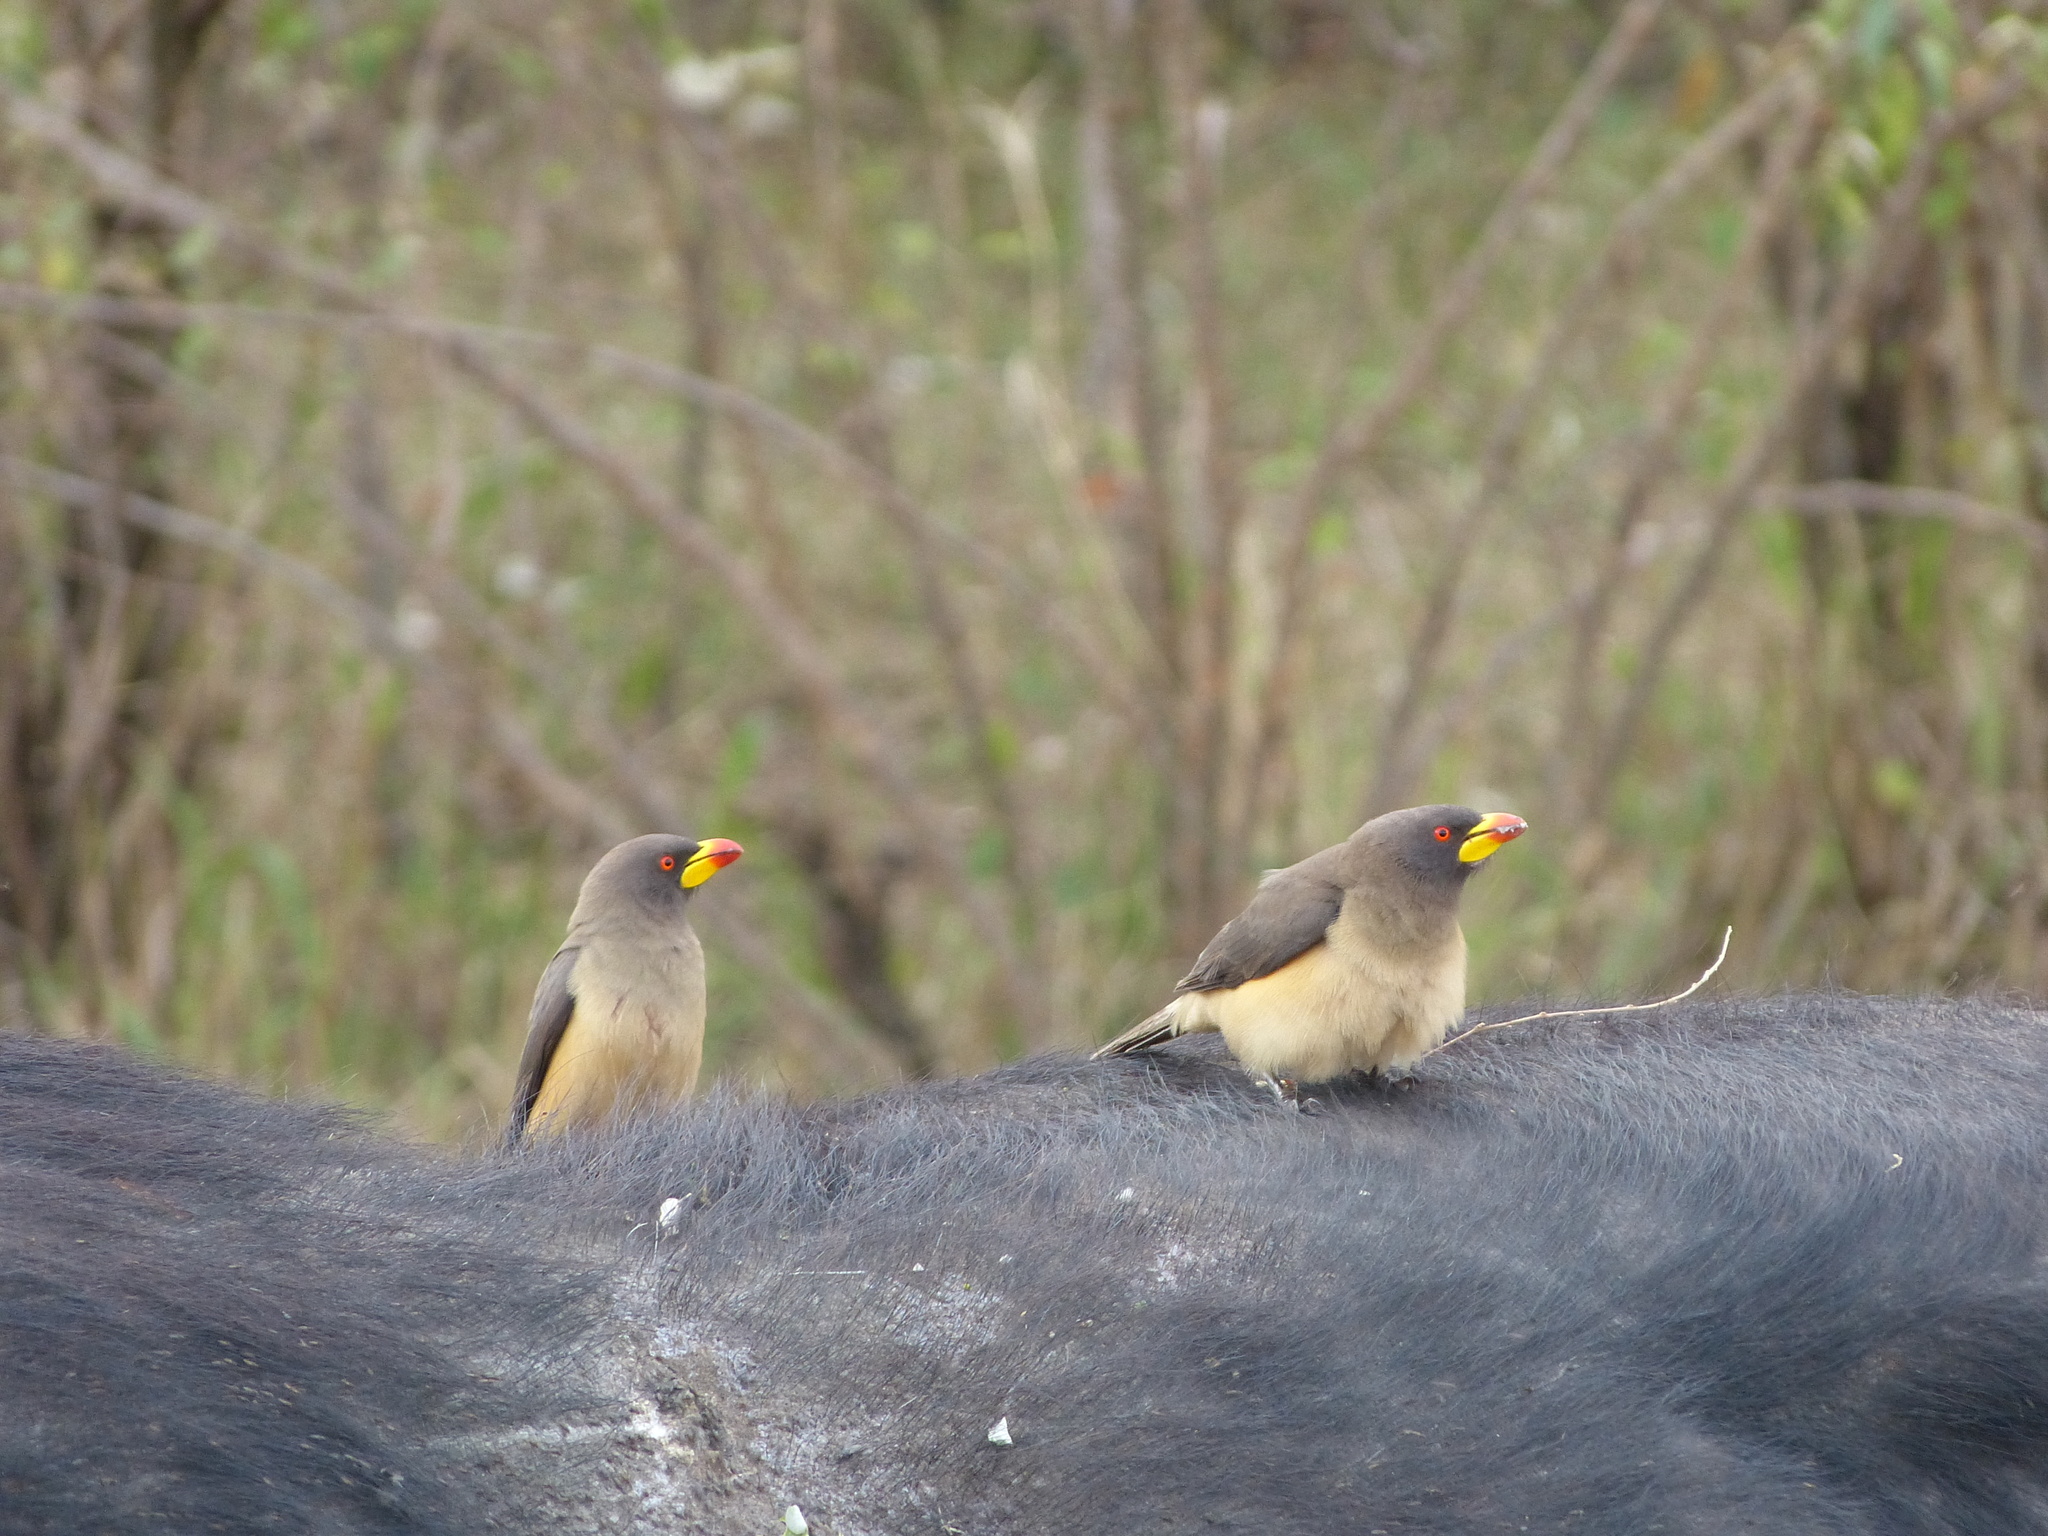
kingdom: Animalia
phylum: Chordata
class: Aves
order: Passeriformes
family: Buphagidae
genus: Buphagus
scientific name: Buphagus africanus
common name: Yellow-billed oxpecker
